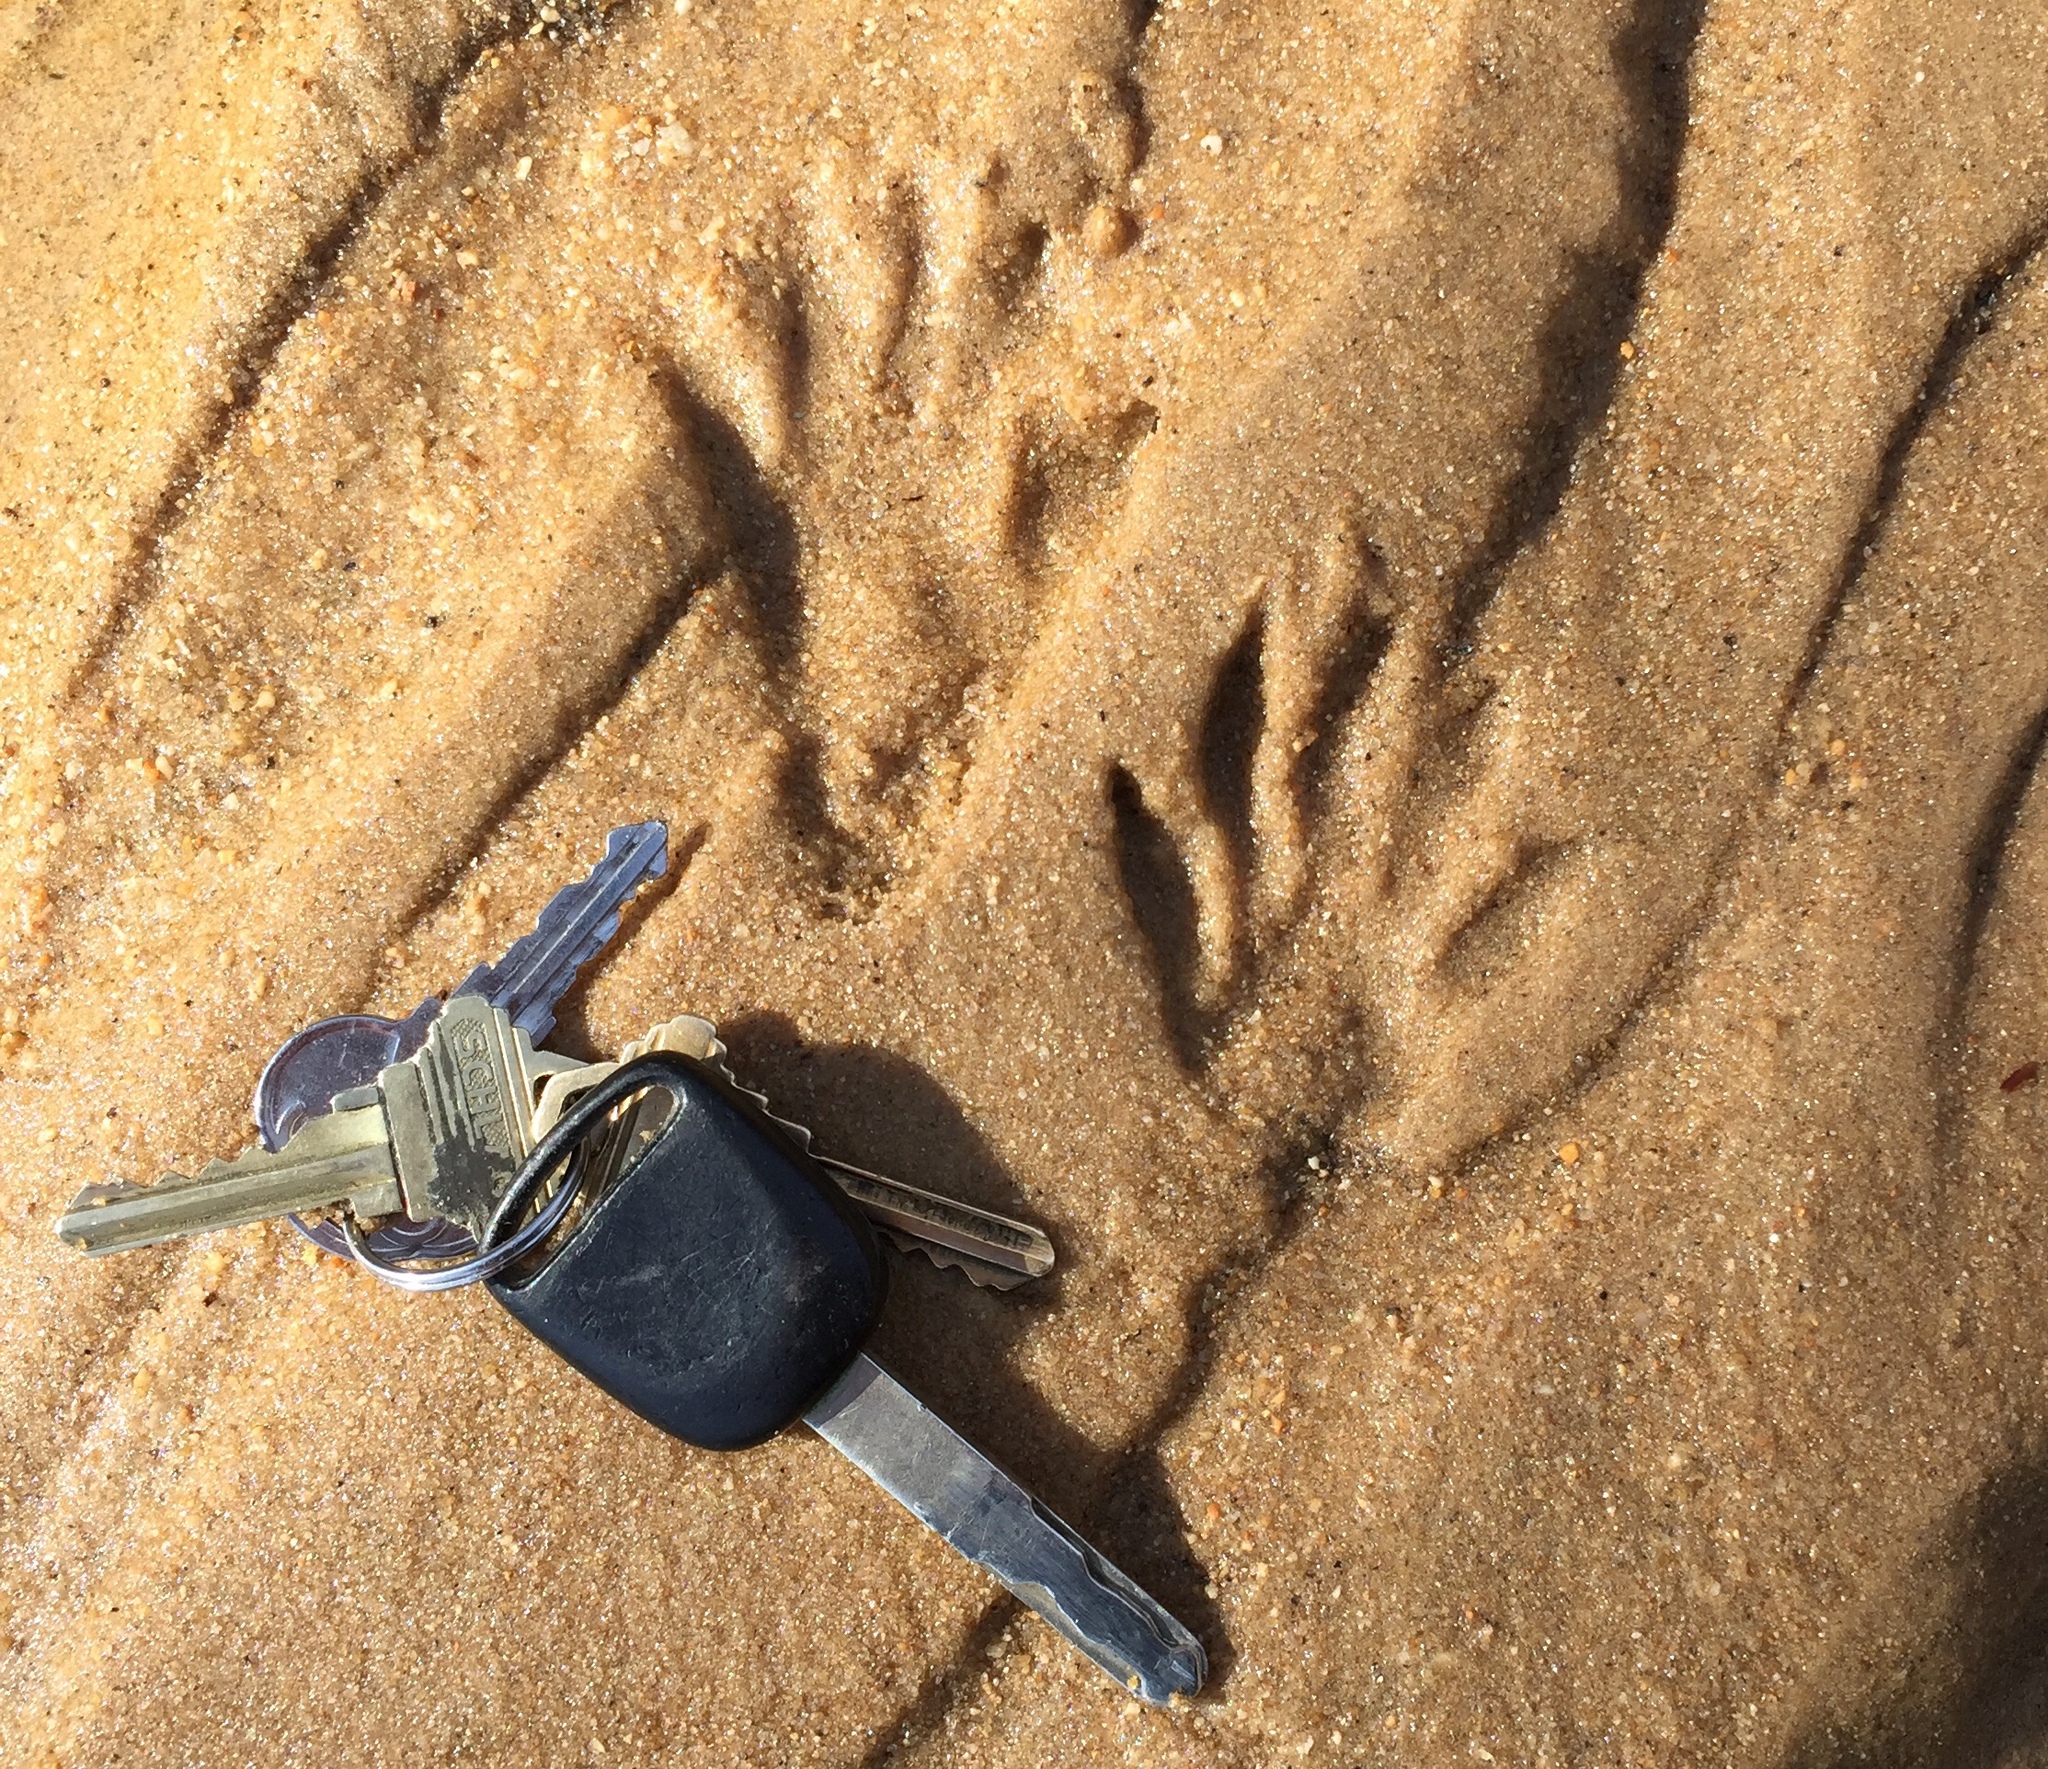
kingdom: Animalia
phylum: Chordata
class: Mammalia
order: Carnivora
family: Procyonidae
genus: Procyon
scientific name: Procyon lotor
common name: Raccoon
